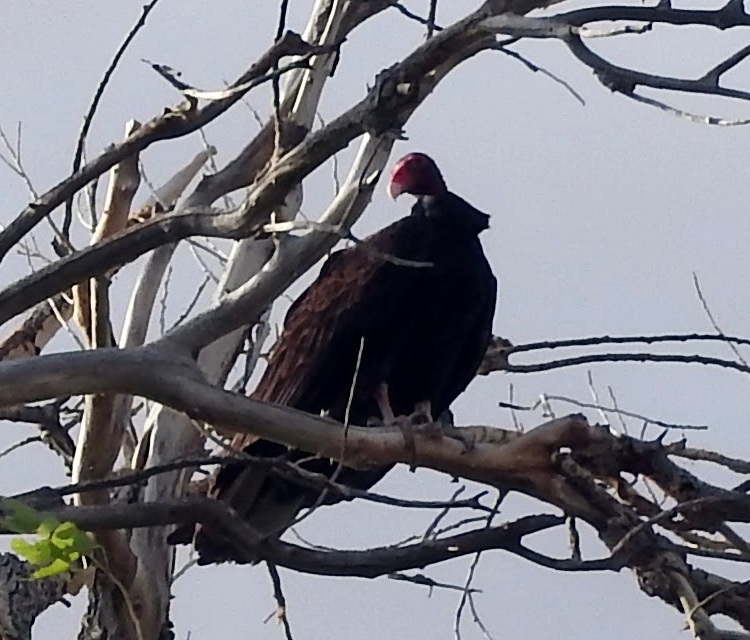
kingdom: Animalia
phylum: Chordata
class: Aves
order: Accipitriformes
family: Cathartidae
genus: Cathartes
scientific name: Cathartes aura
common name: Turkey vulture
